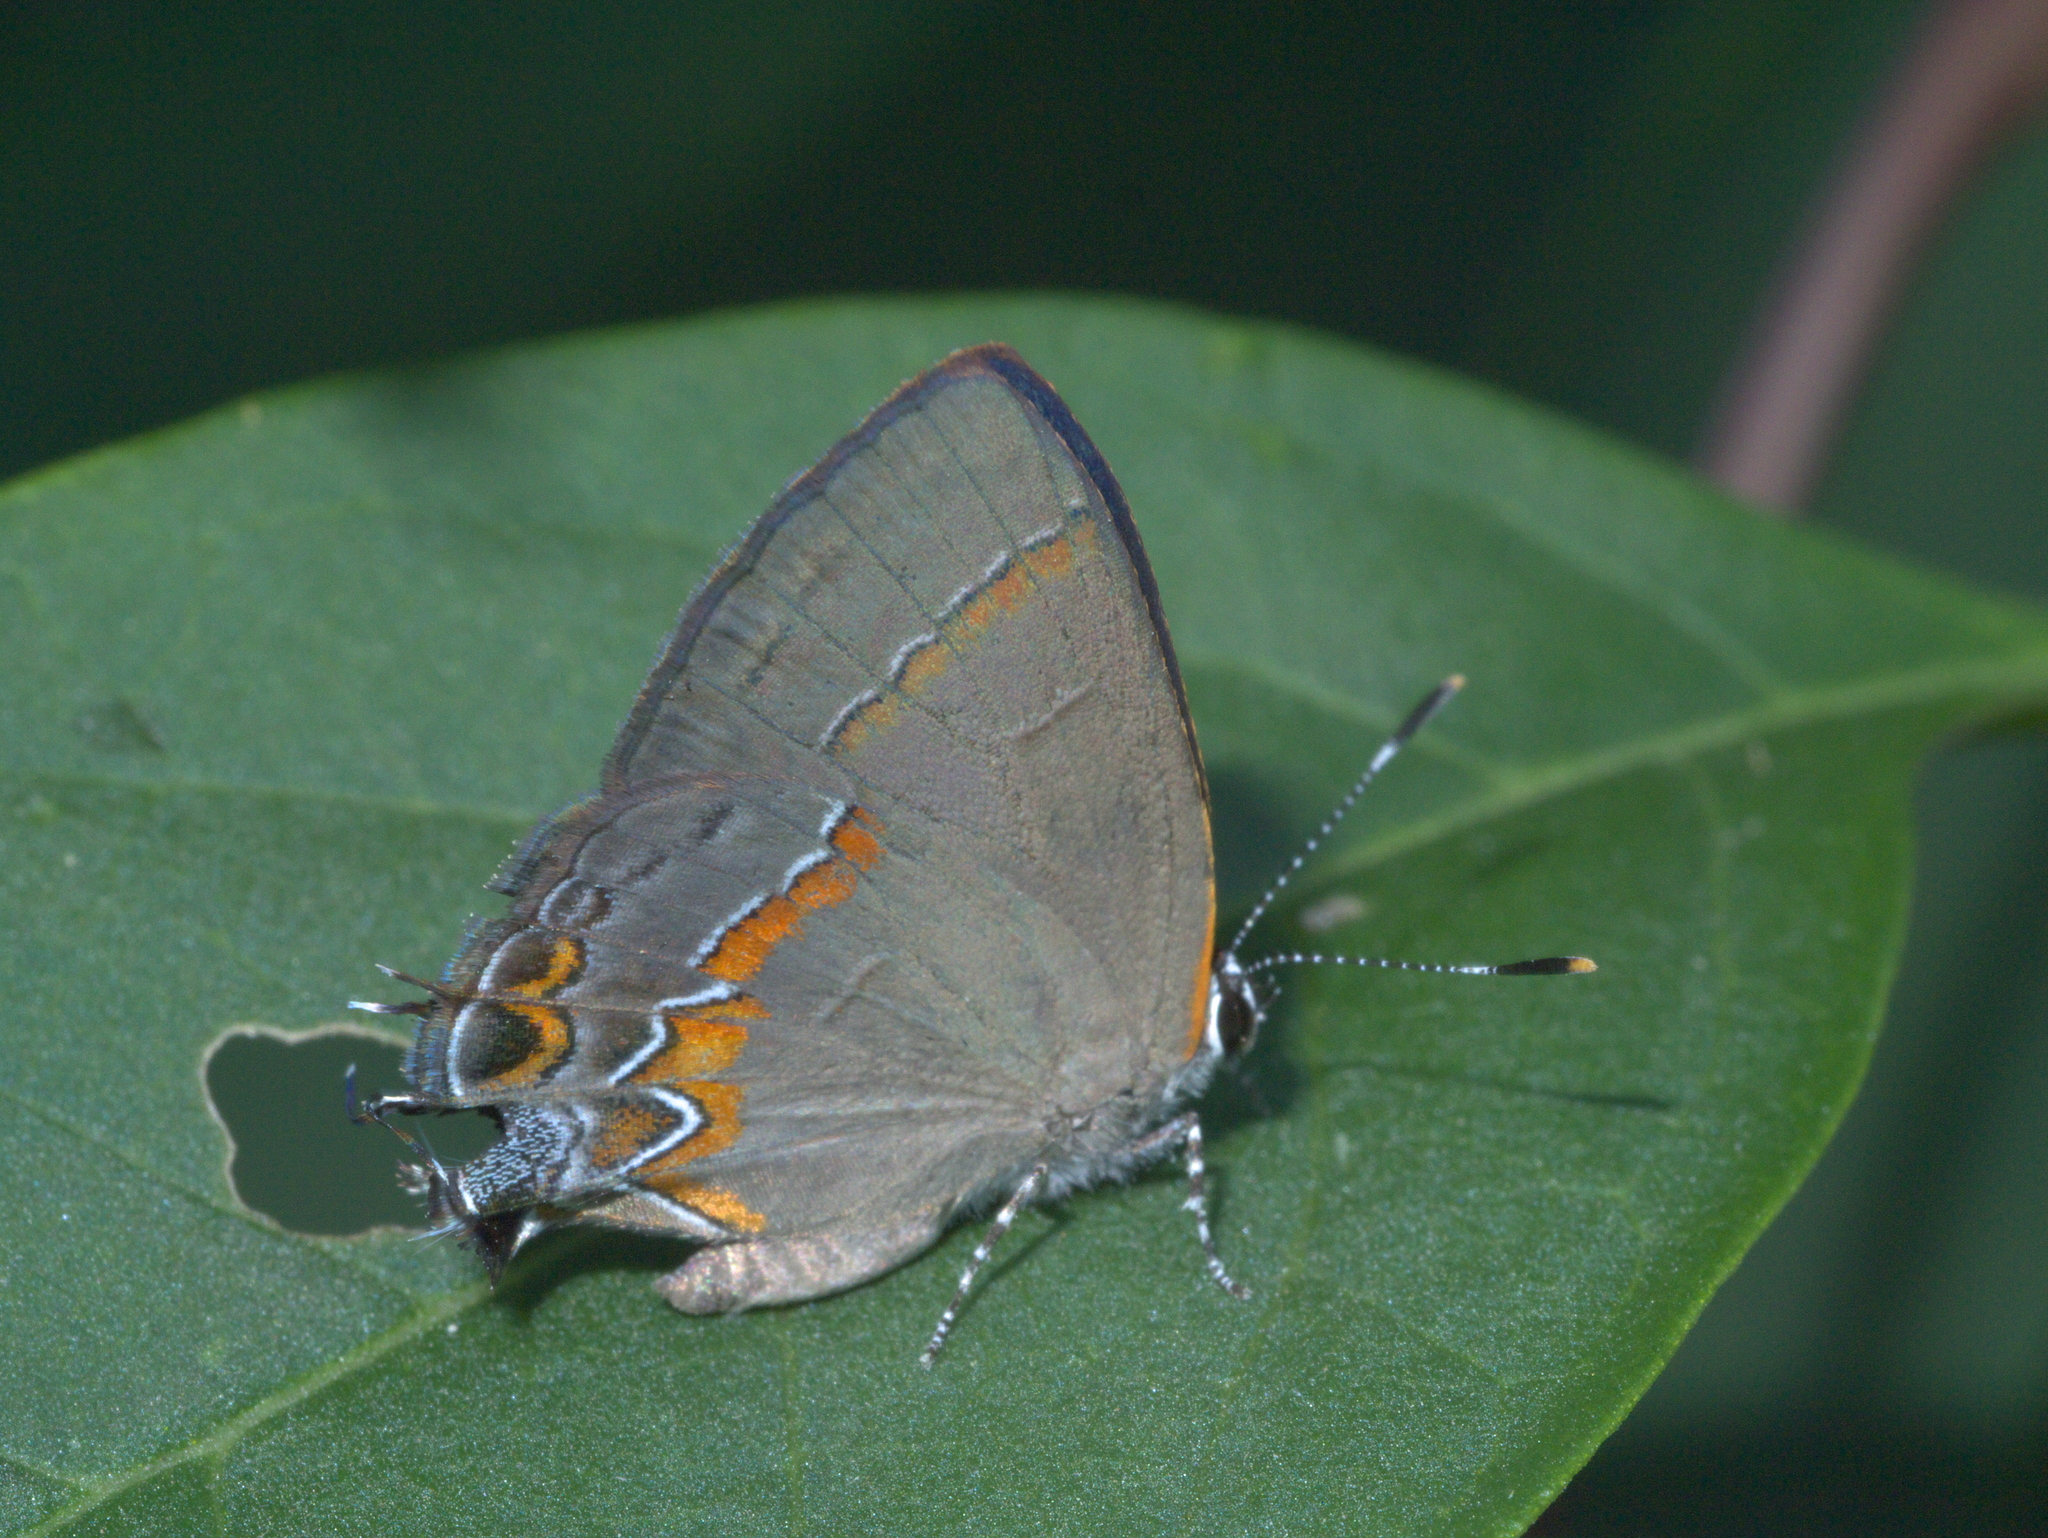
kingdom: Animalia
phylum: Arthropoda
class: Insecta
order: Lepidoptera
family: Lycaenidae
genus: Calycopis
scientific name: Calycopis cecrops
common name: Red-banded hairstreak
